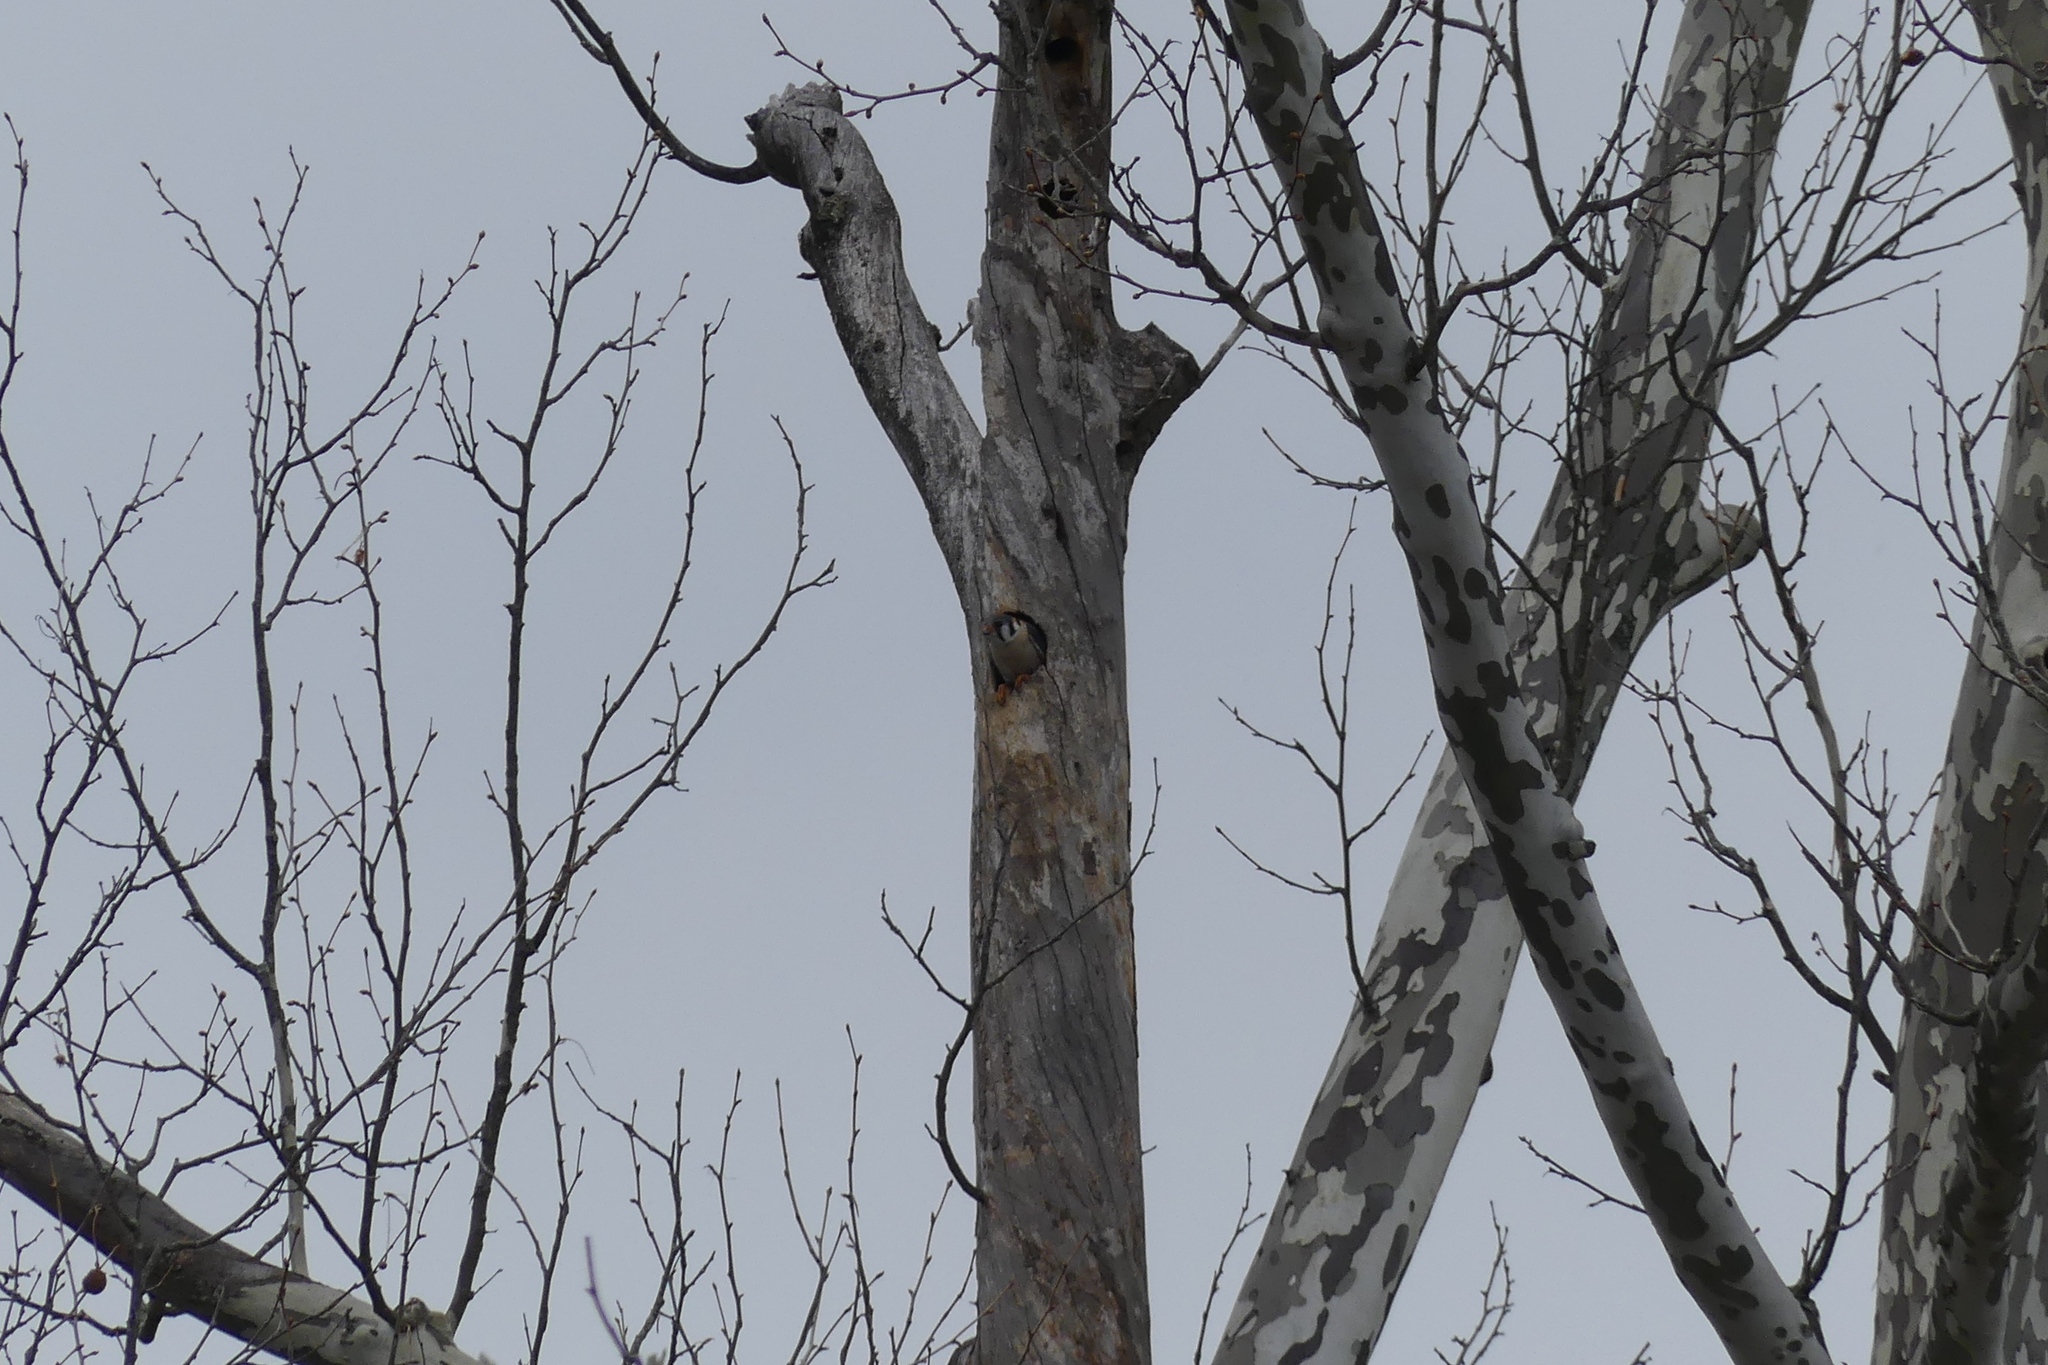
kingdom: Animalia
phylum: Chordata
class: Aves
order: Falconiformes
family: Falconidae
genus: Falco
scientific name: Falco sparverius
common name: American kestrel
